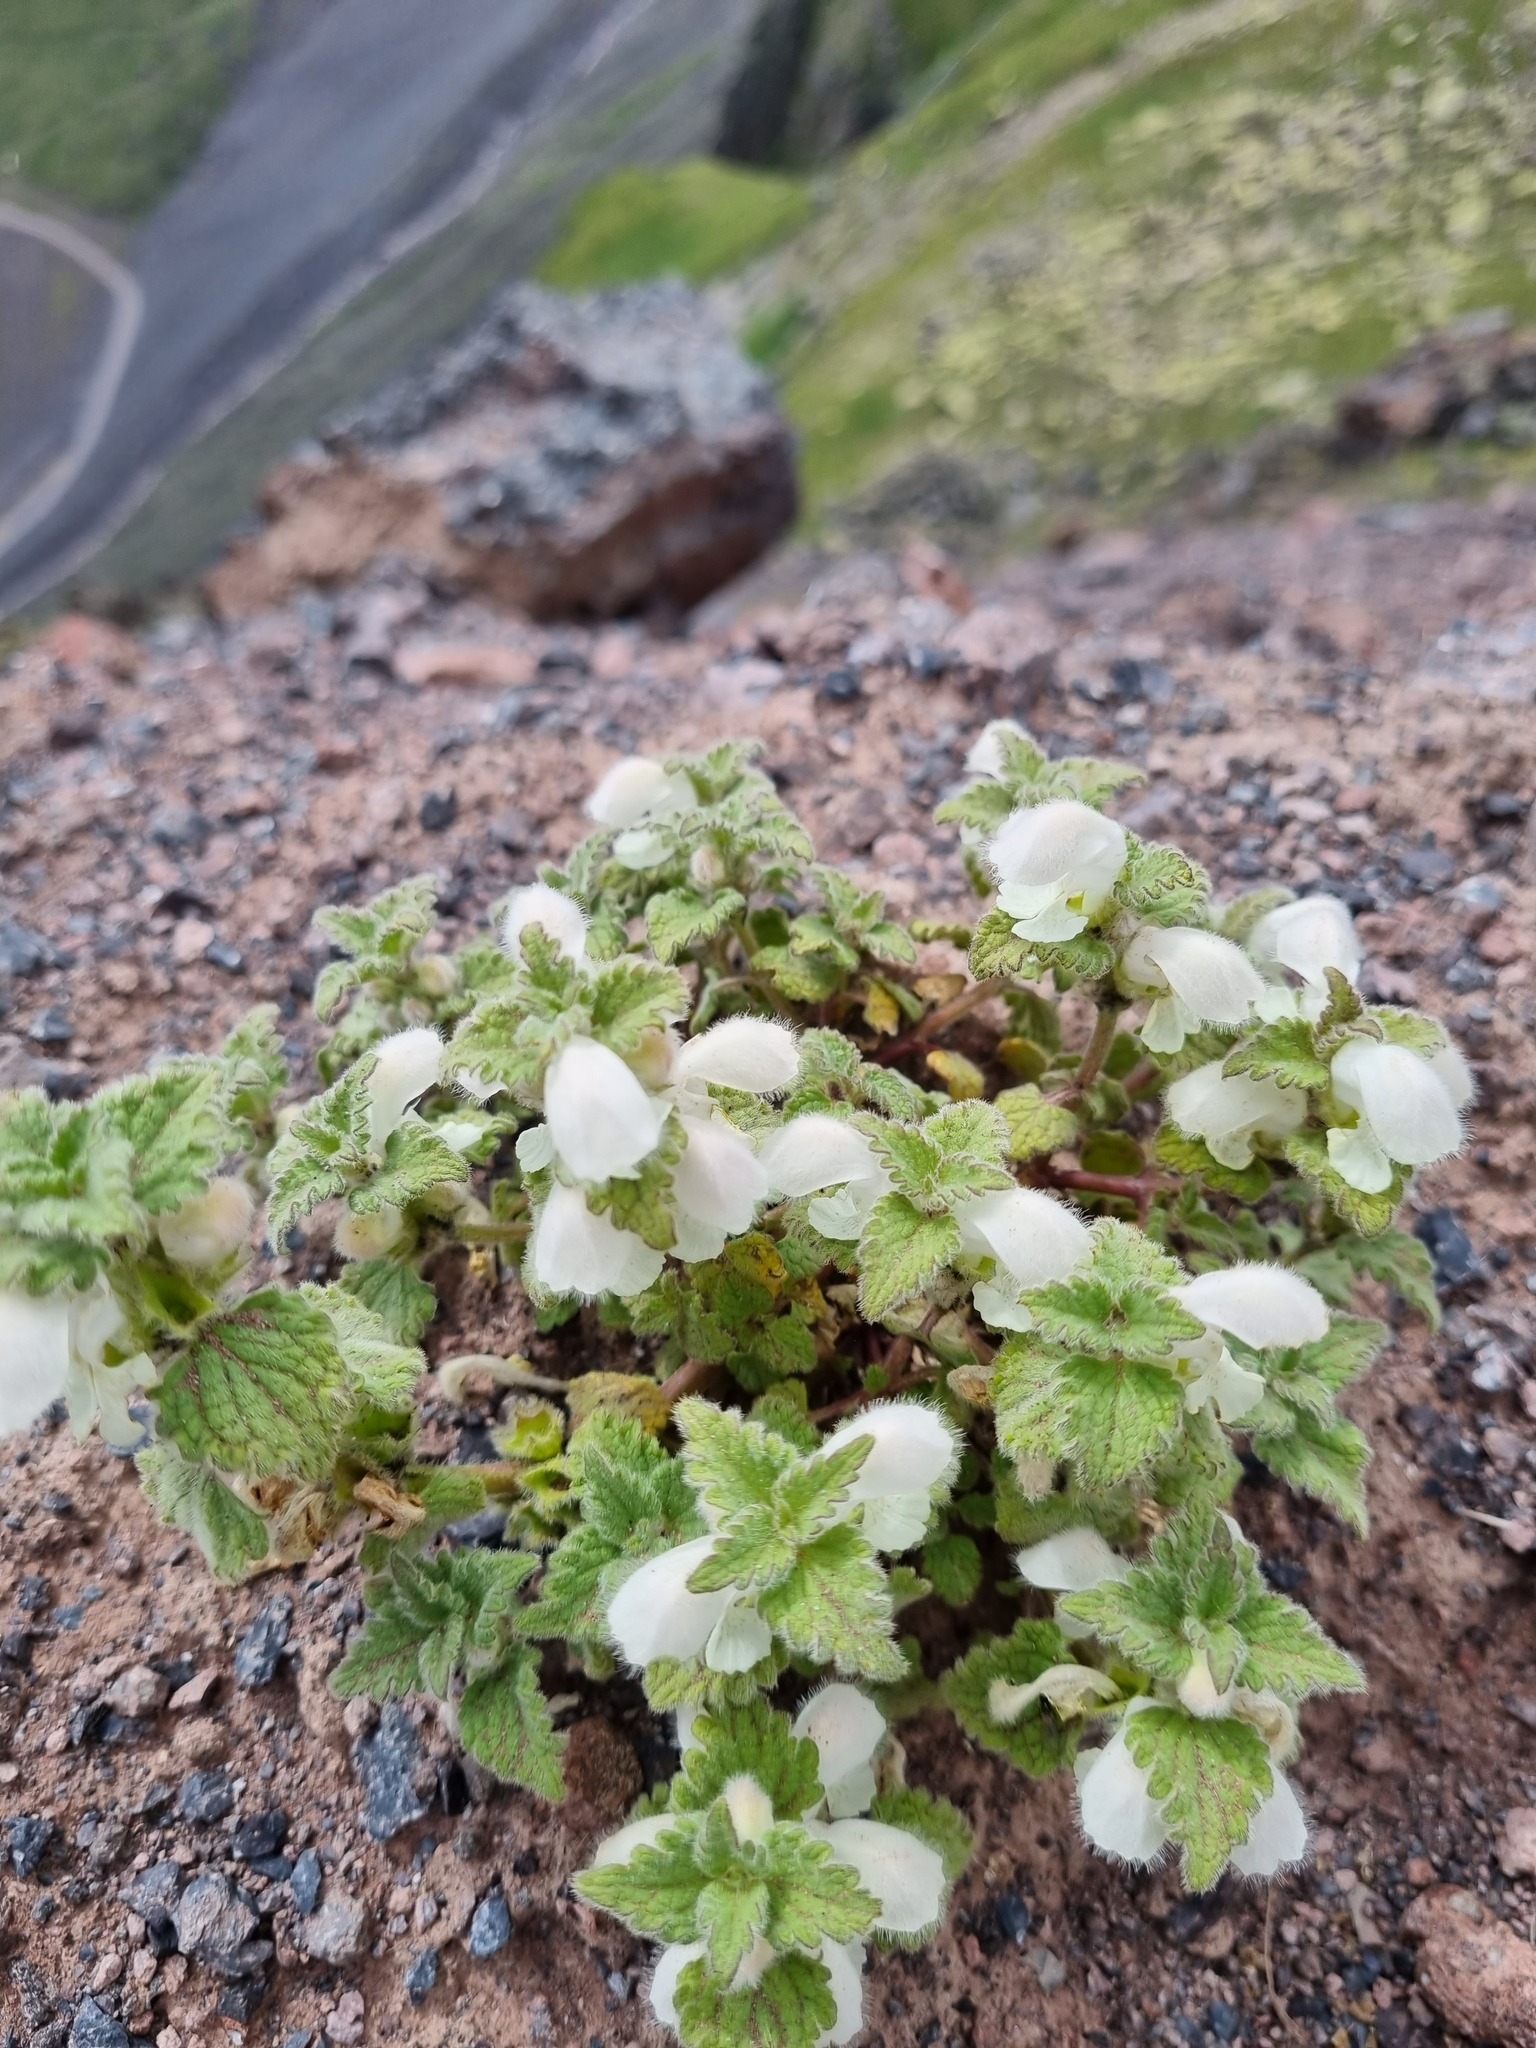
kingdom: Plantae
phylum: Tracheophyta
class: Magnoliopsida
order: Lamiales
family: Lamiaceae
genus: Lamium
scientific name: Lamium tomentosum
